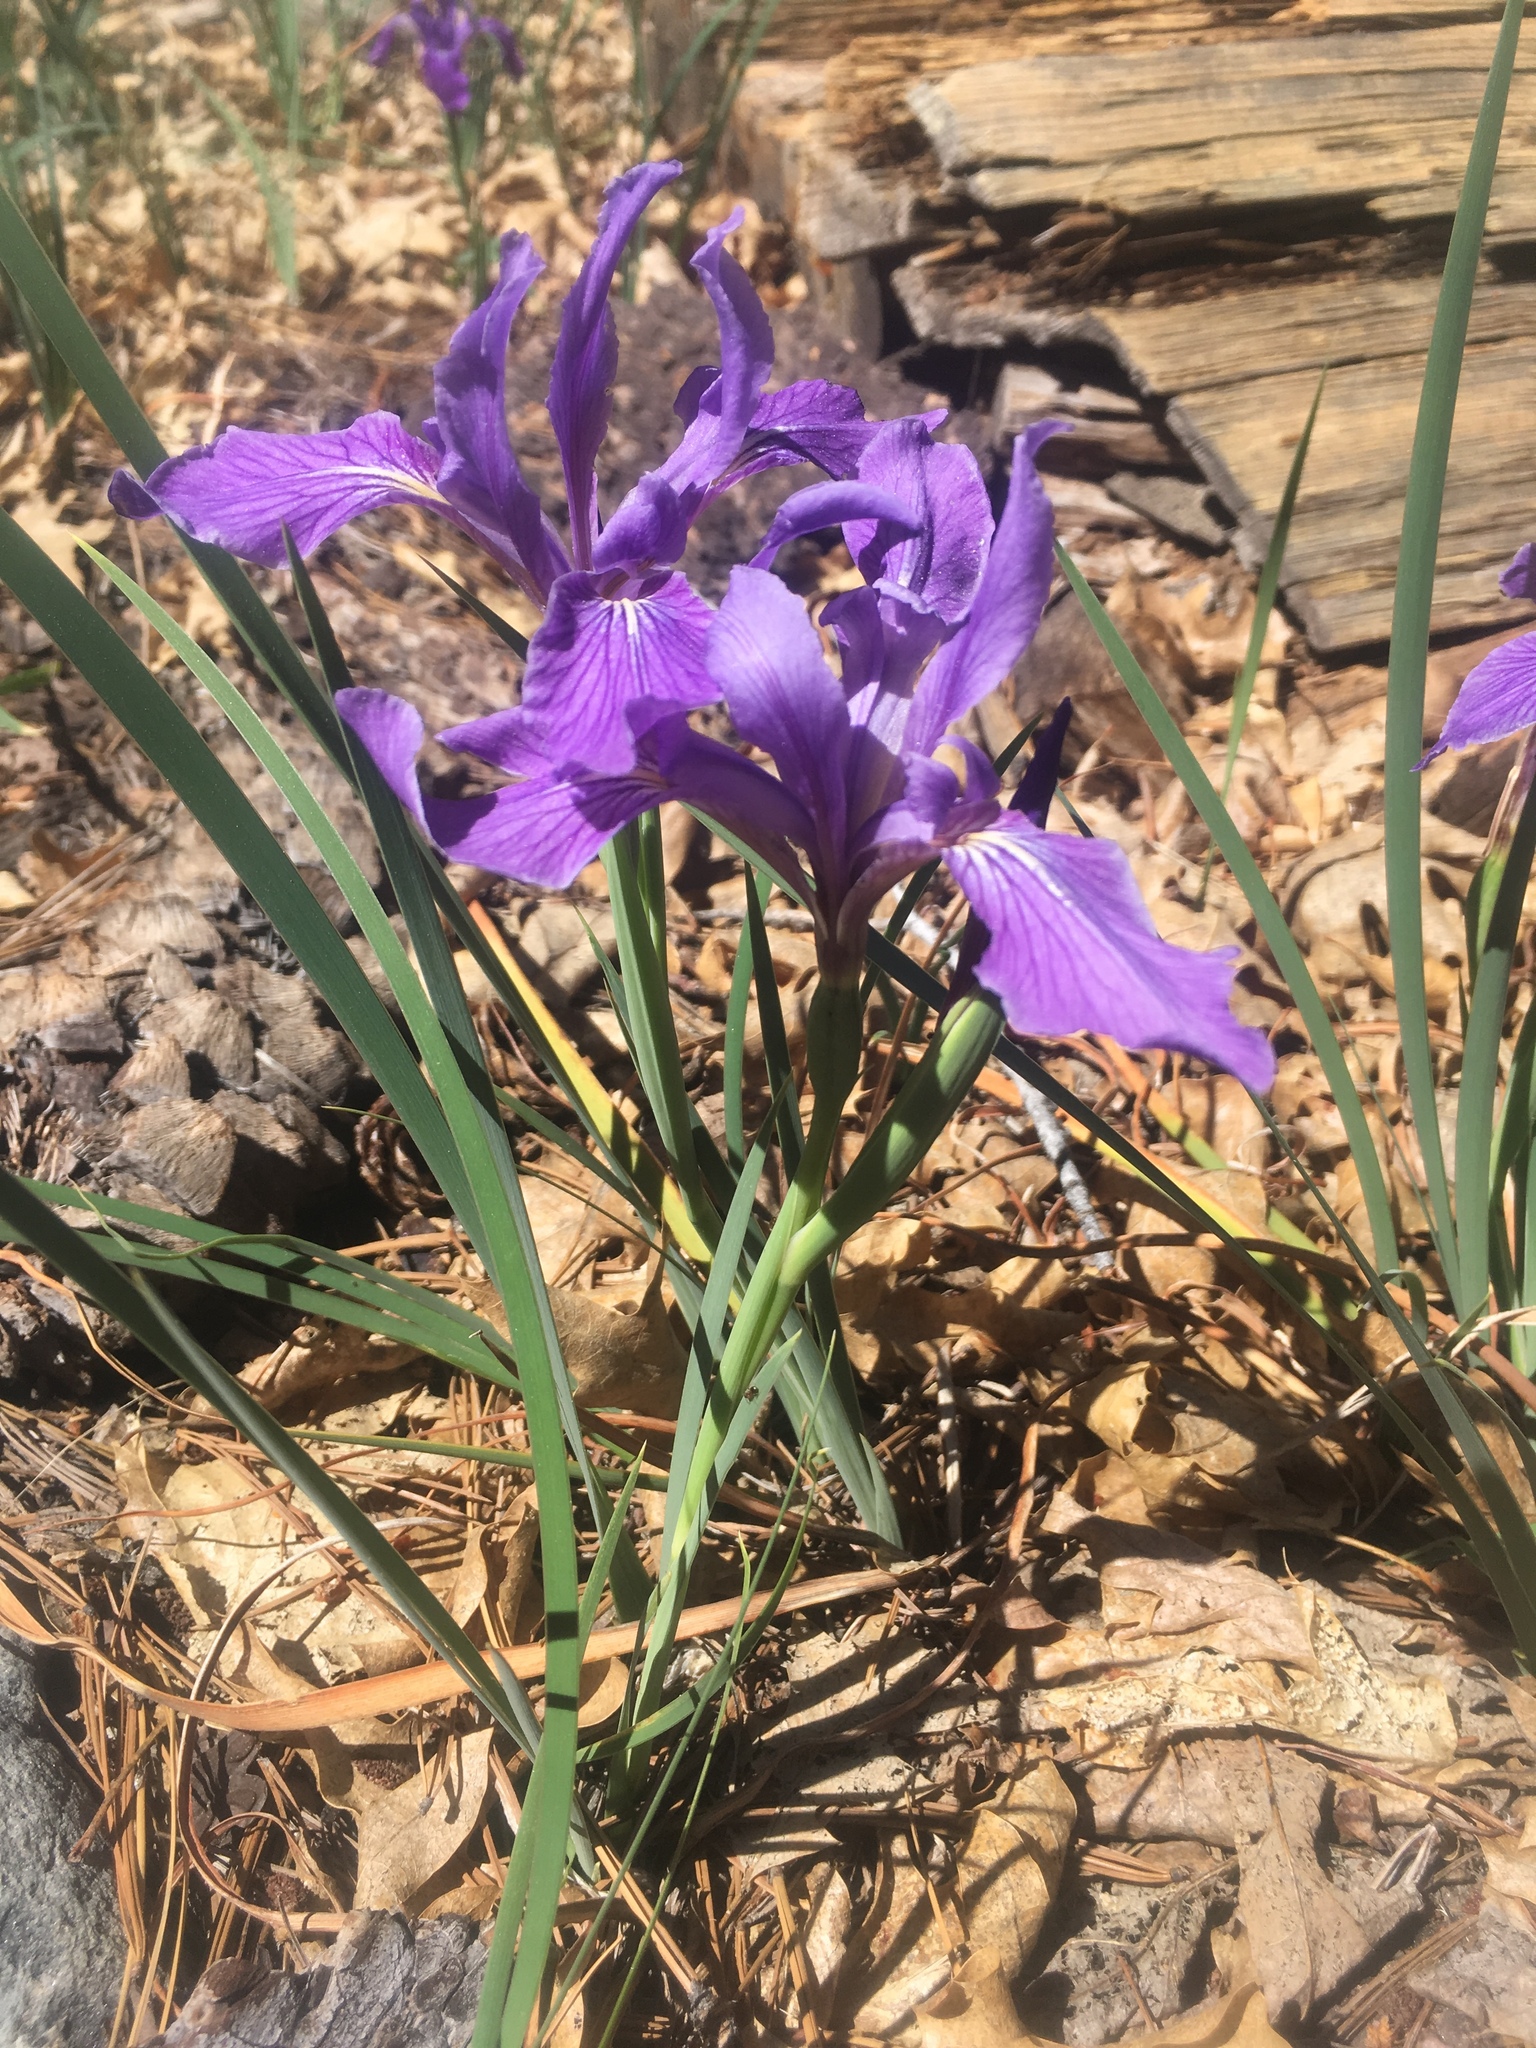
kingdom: Plantae
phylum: Tracheophyta
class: Liliopsida
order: Asparagales
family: Iridaceae
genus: Iris
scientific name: Iris hartwegii
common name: Sierra iris
